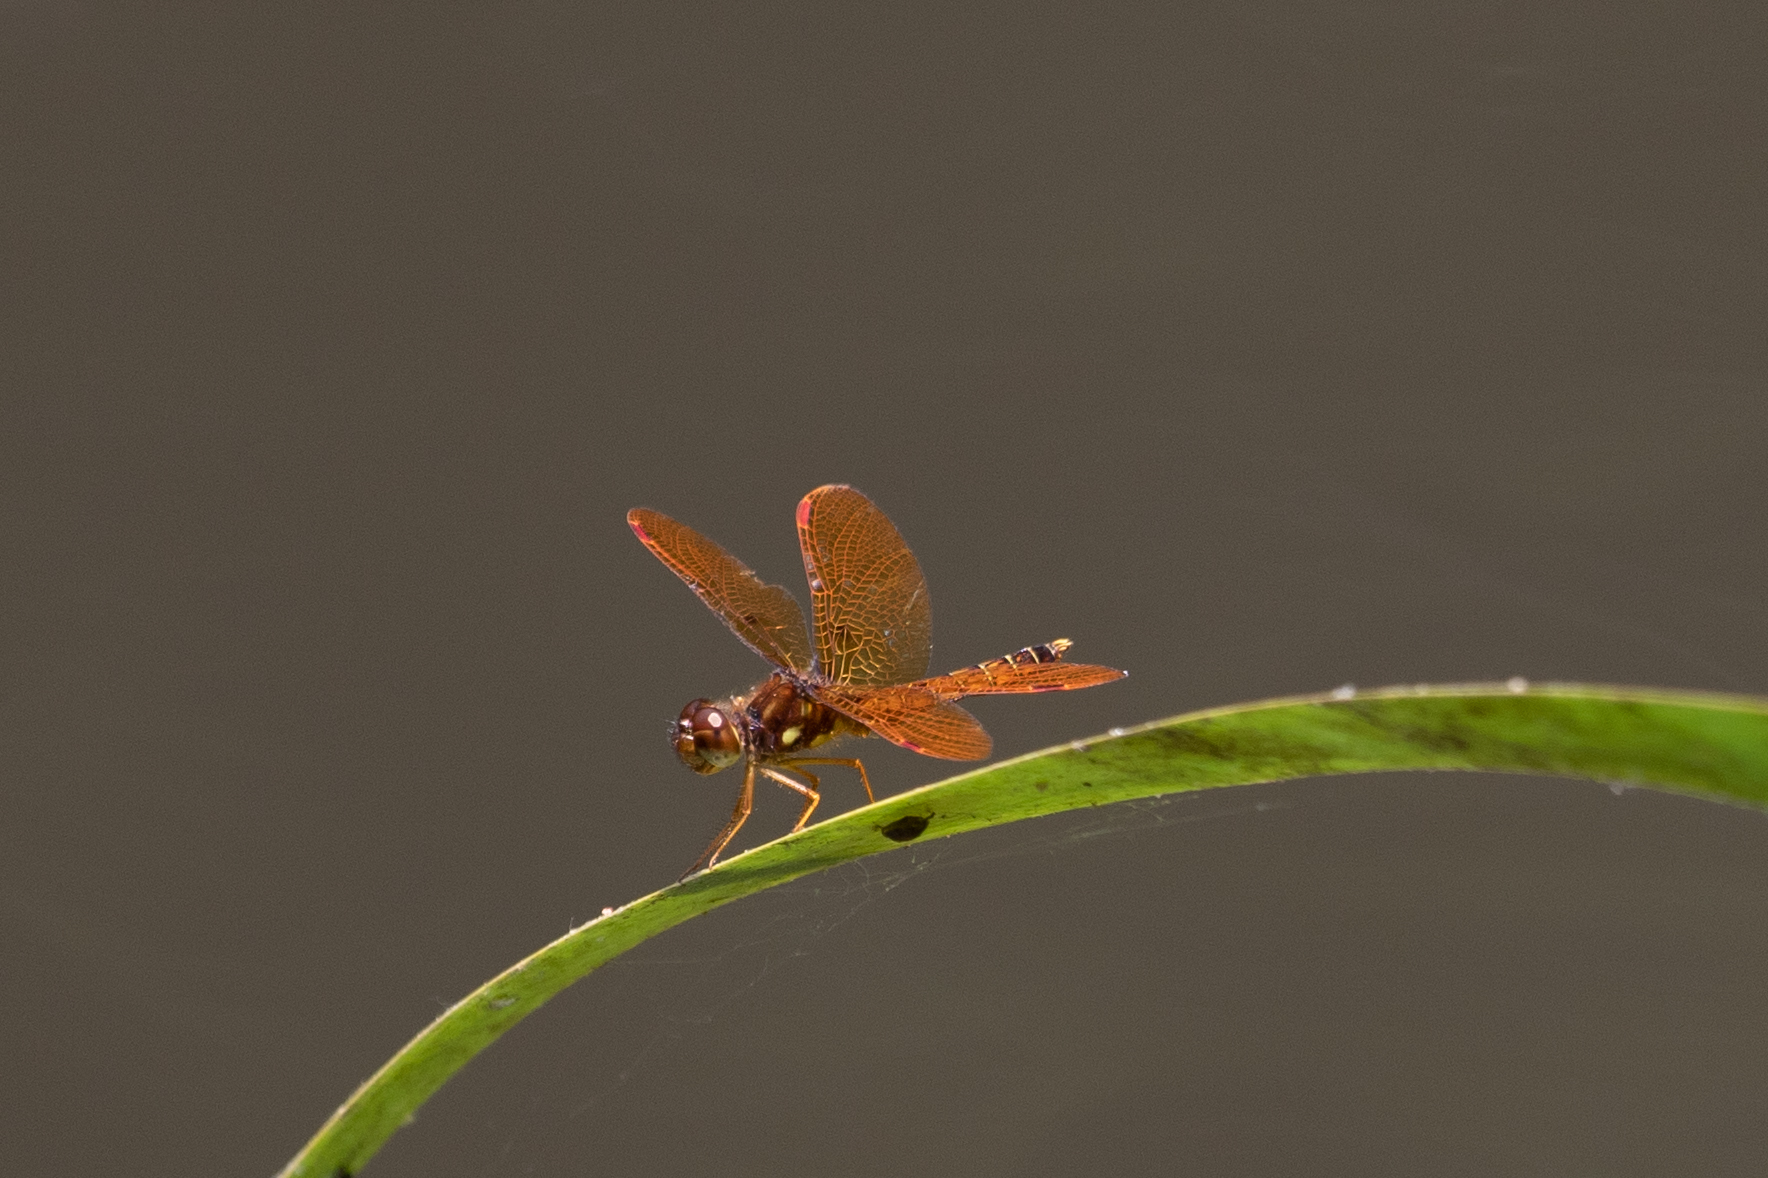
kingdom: Animalia
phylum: Arthropoda
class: Insecta
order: Odonata
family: Libellulidae
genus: Perithemis
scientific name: Perithemis tenera
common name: Eastern amberwing
